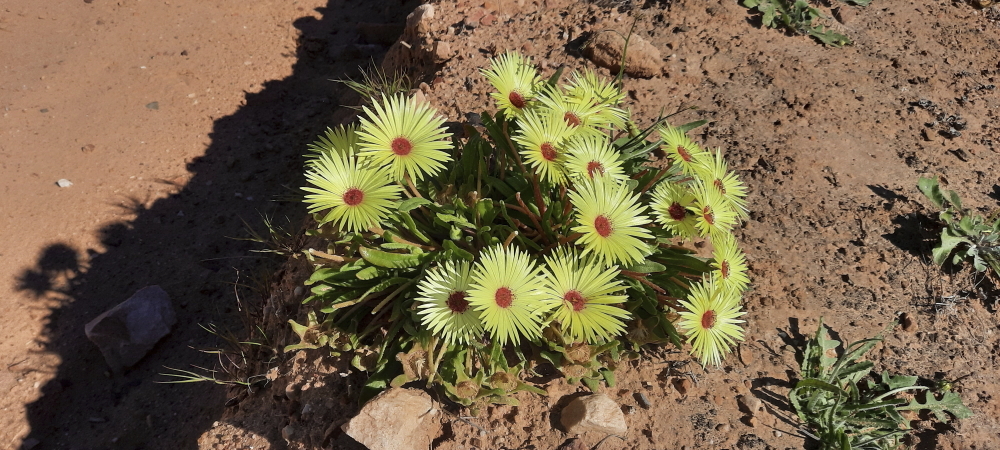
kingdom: Plantae
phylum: Tracheophyta
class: Magnoliopsida
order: Caryophyllales
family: Aizoaceae
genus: Cleretum
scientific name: Cleretum bellidiforme
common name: Livingstone daisy
